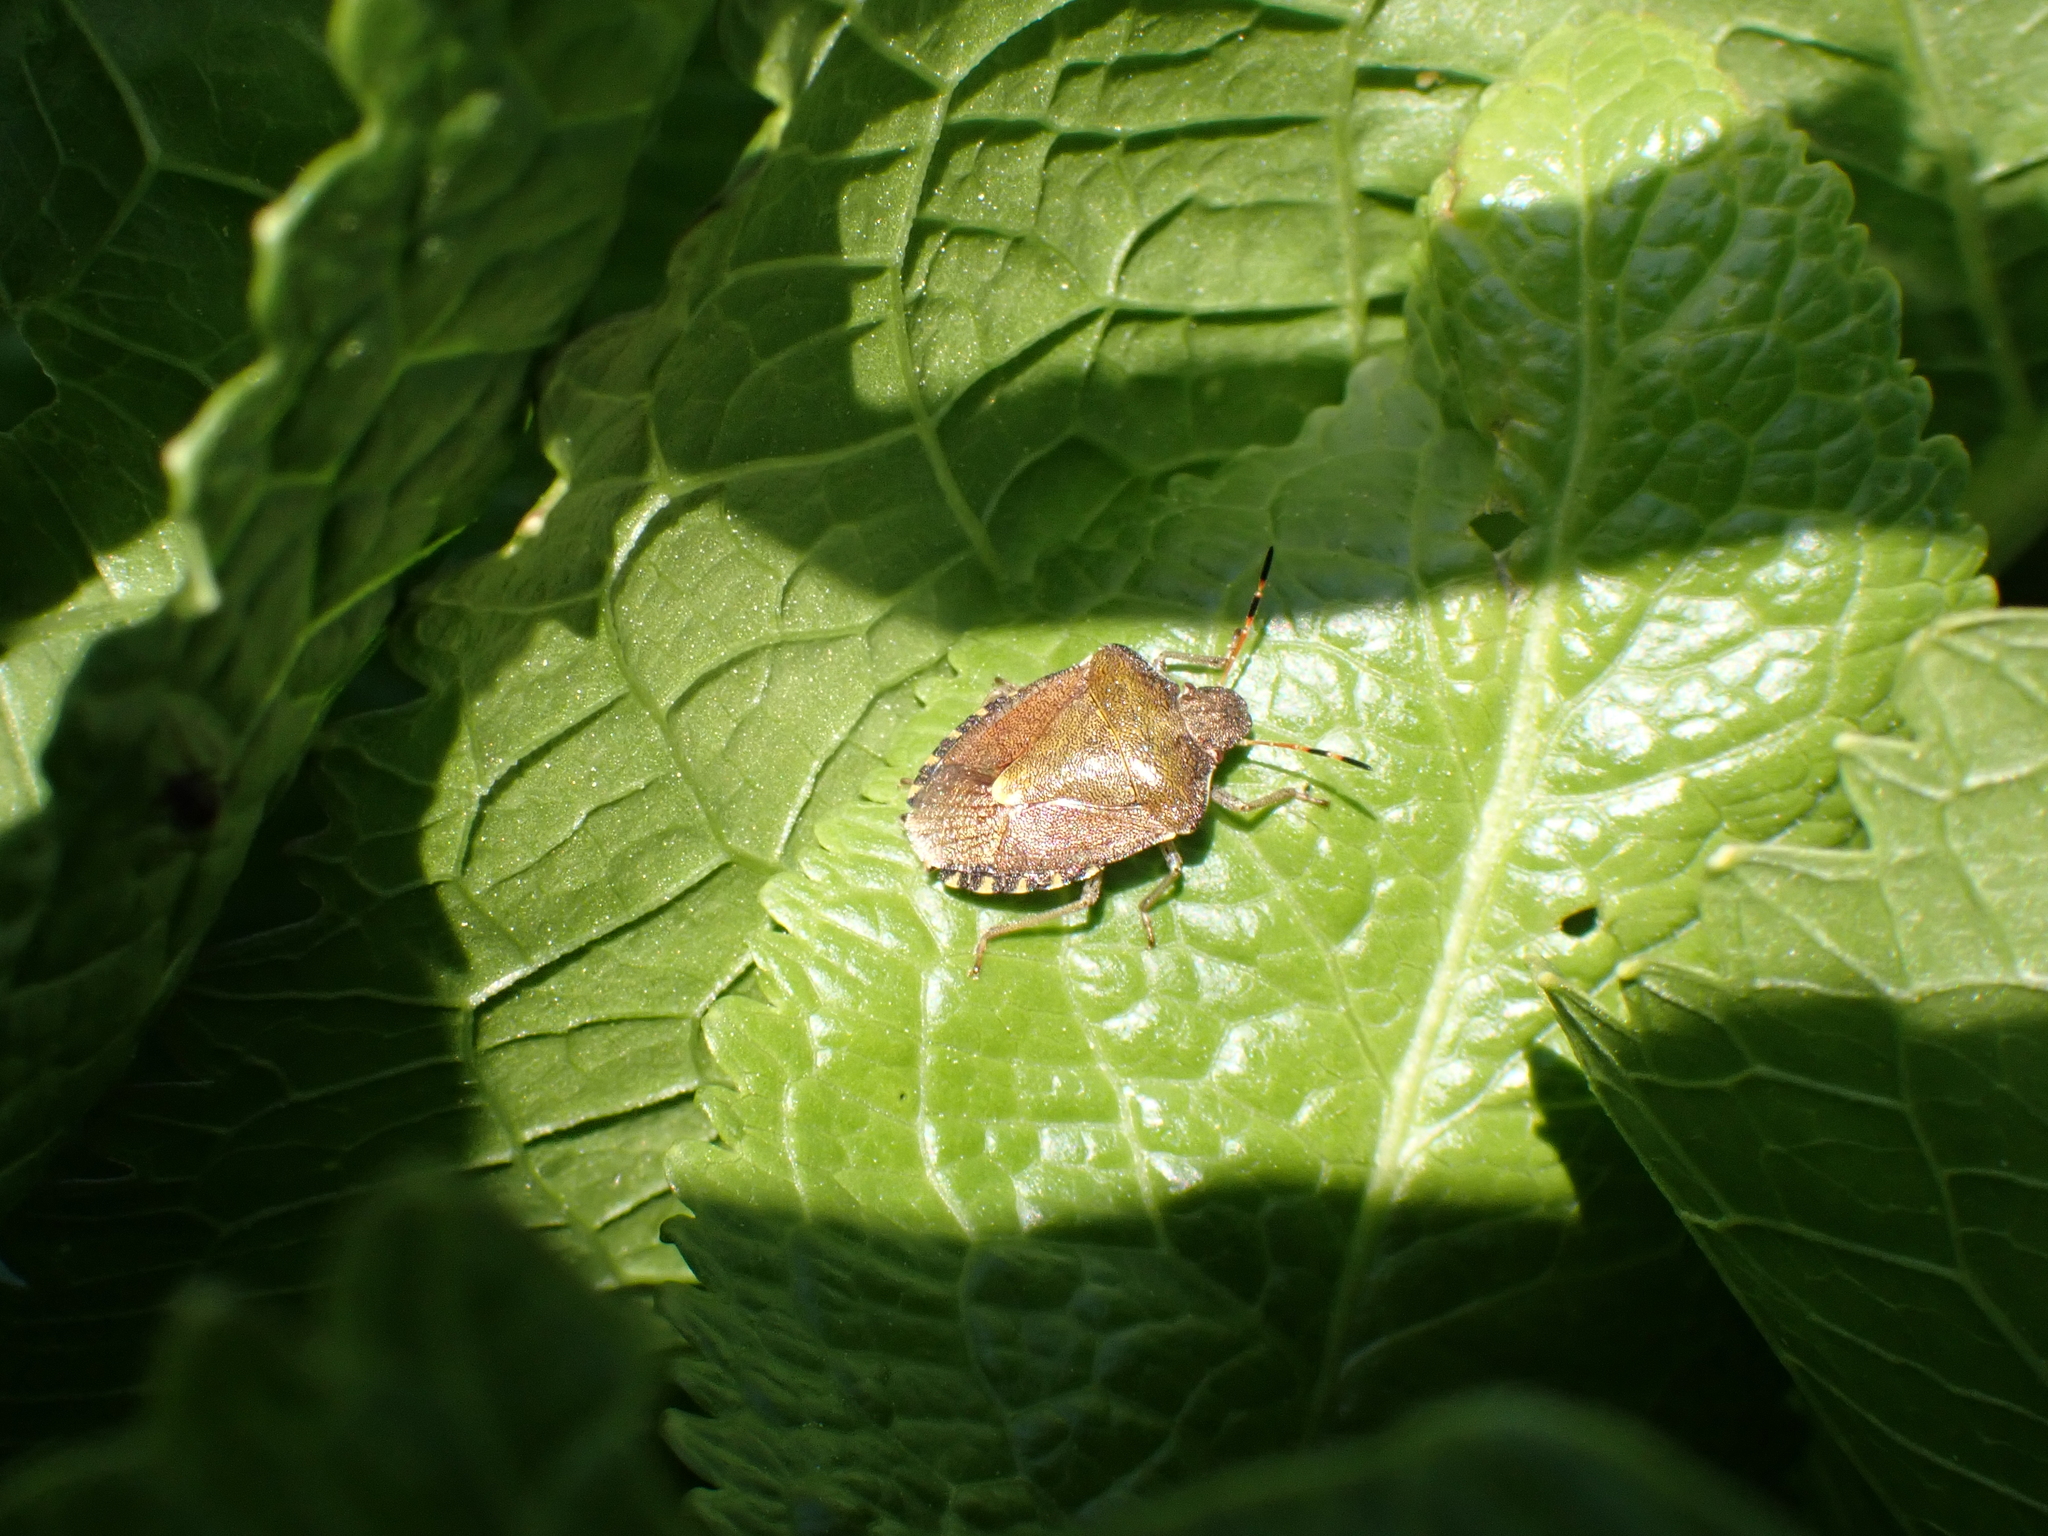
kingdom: Animalia
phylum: Arthropoda
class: Insecta
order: Hemiptera
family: Pentatomidae
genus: Holcostethus
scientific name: Holcostethus strictus
